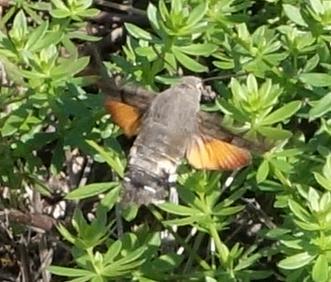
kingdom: Animalia
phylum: Arthropoda
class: Insecta
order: Lepidoptera
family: Sphingidae
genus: Macroglossum
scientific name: Macroglossum stellatarum
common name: Humming-bird hawk-moth
